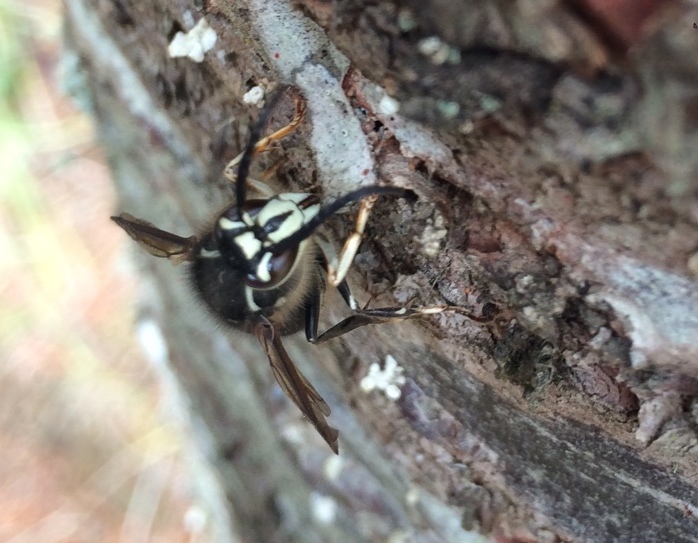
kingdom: Animalia
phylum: Arthropoda
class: Insecta
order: Hymenoptera
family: Vespidae
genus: Dolichovespula
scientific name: Dolichovespula maculata
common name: Bald-faced hornet
